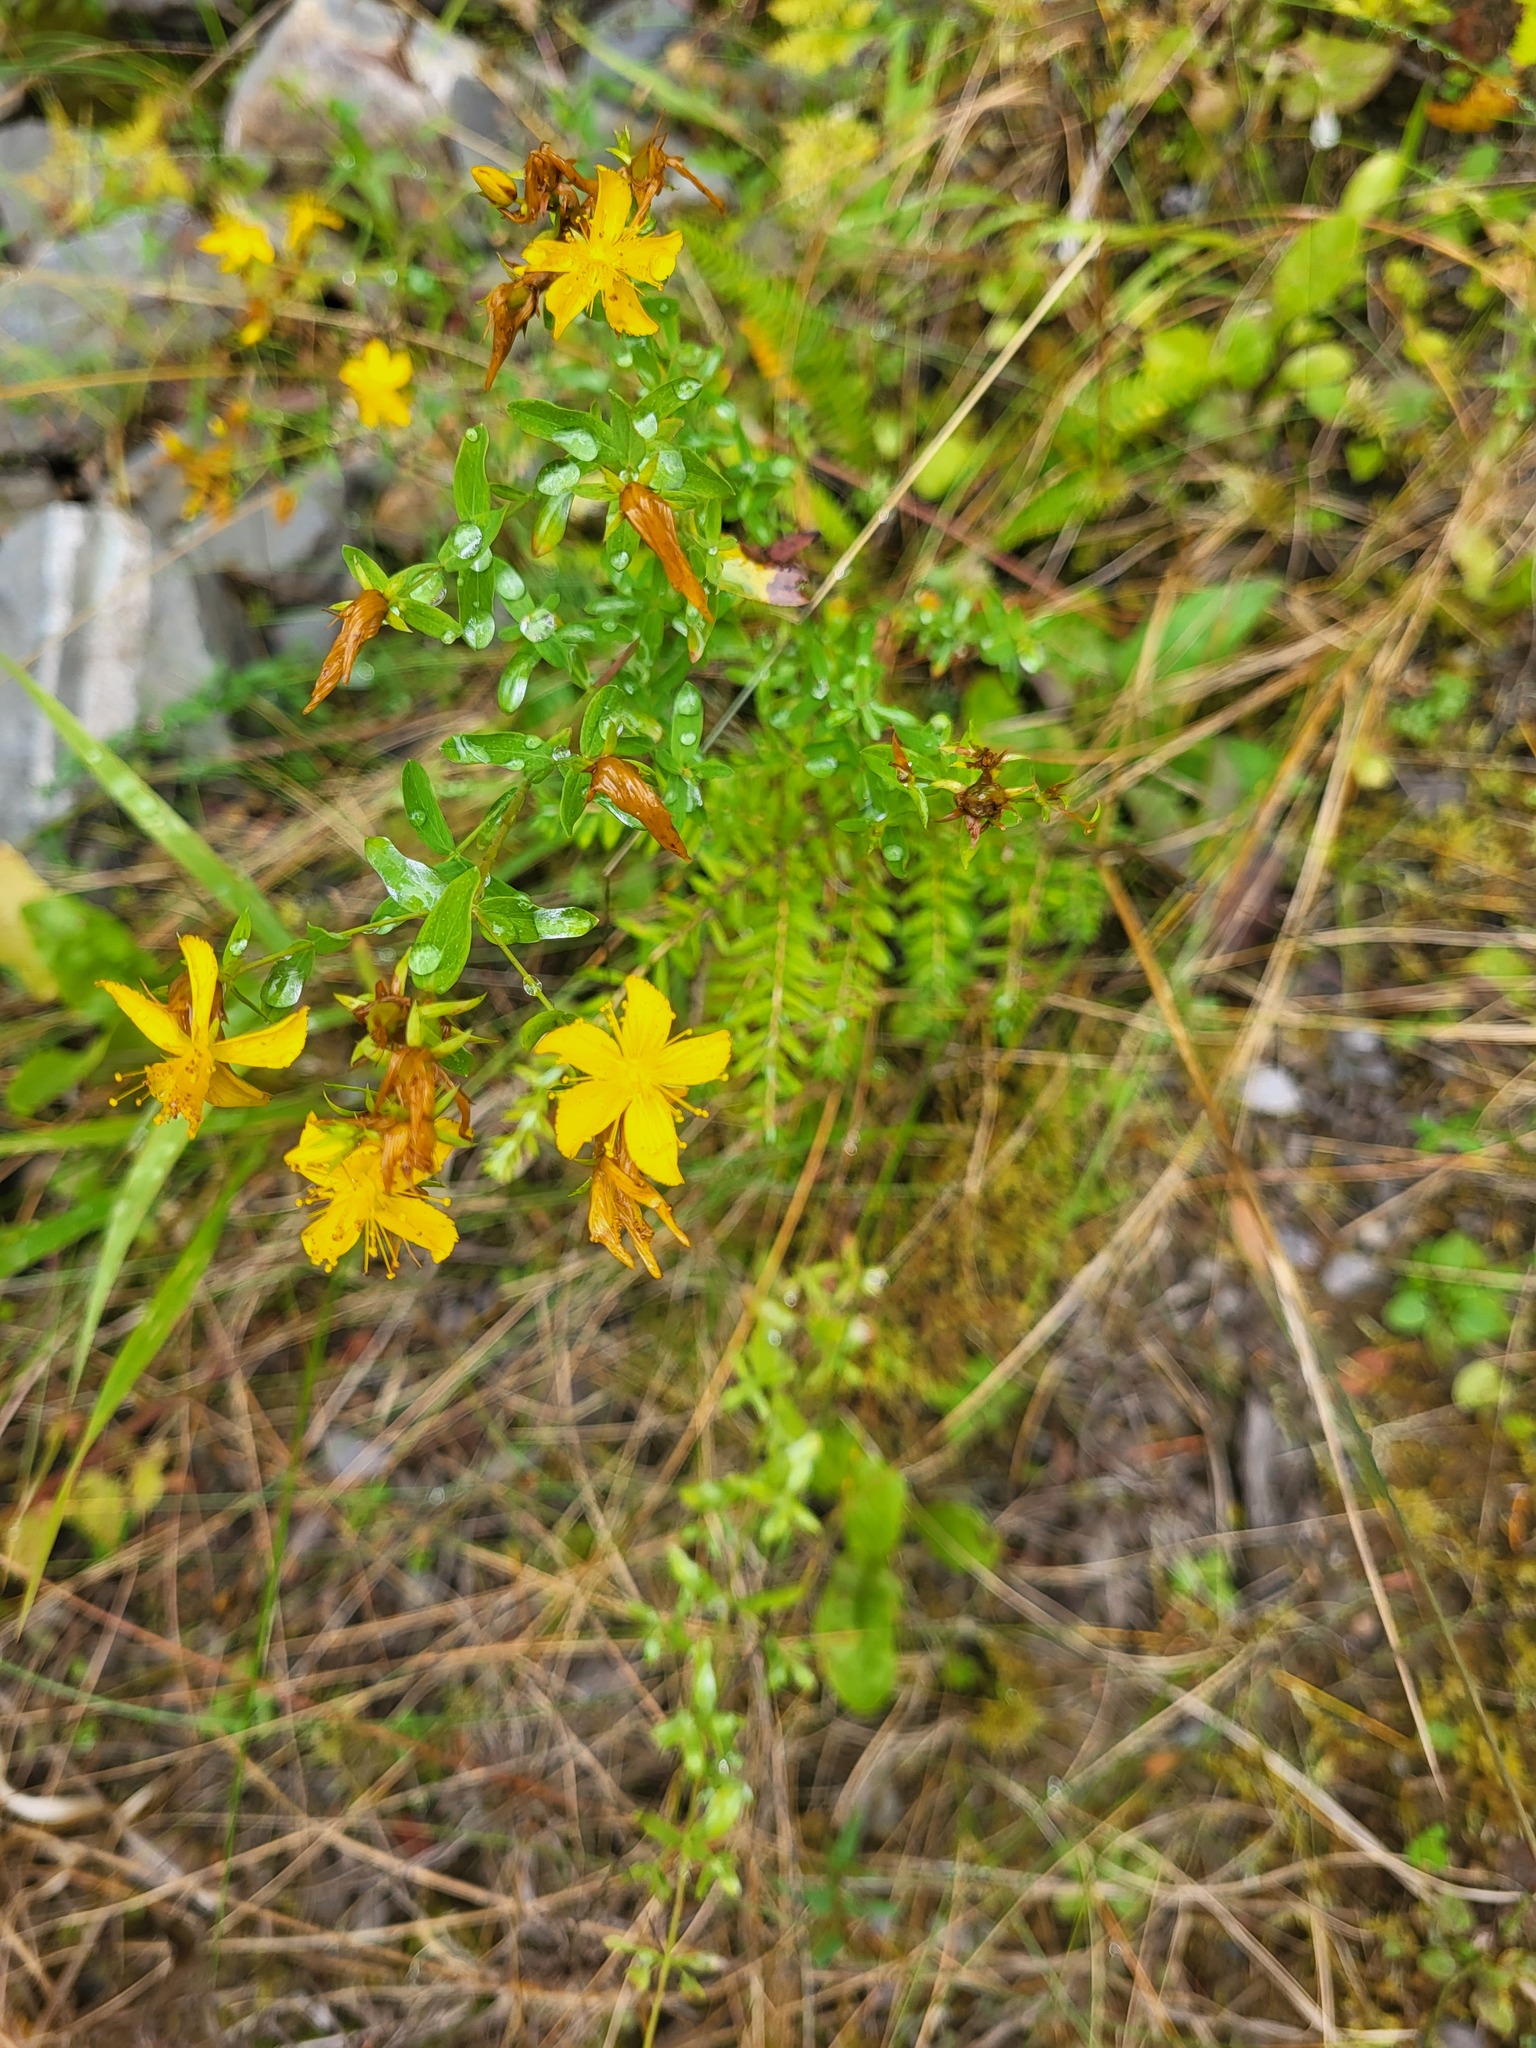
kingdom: Plantae
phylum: Tracheophyta
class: Magnoliopsida
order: Malpighiales
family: Hypericaceae
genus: Hypericum
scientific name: Hypericum perforatum
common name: Common st. johnswort
